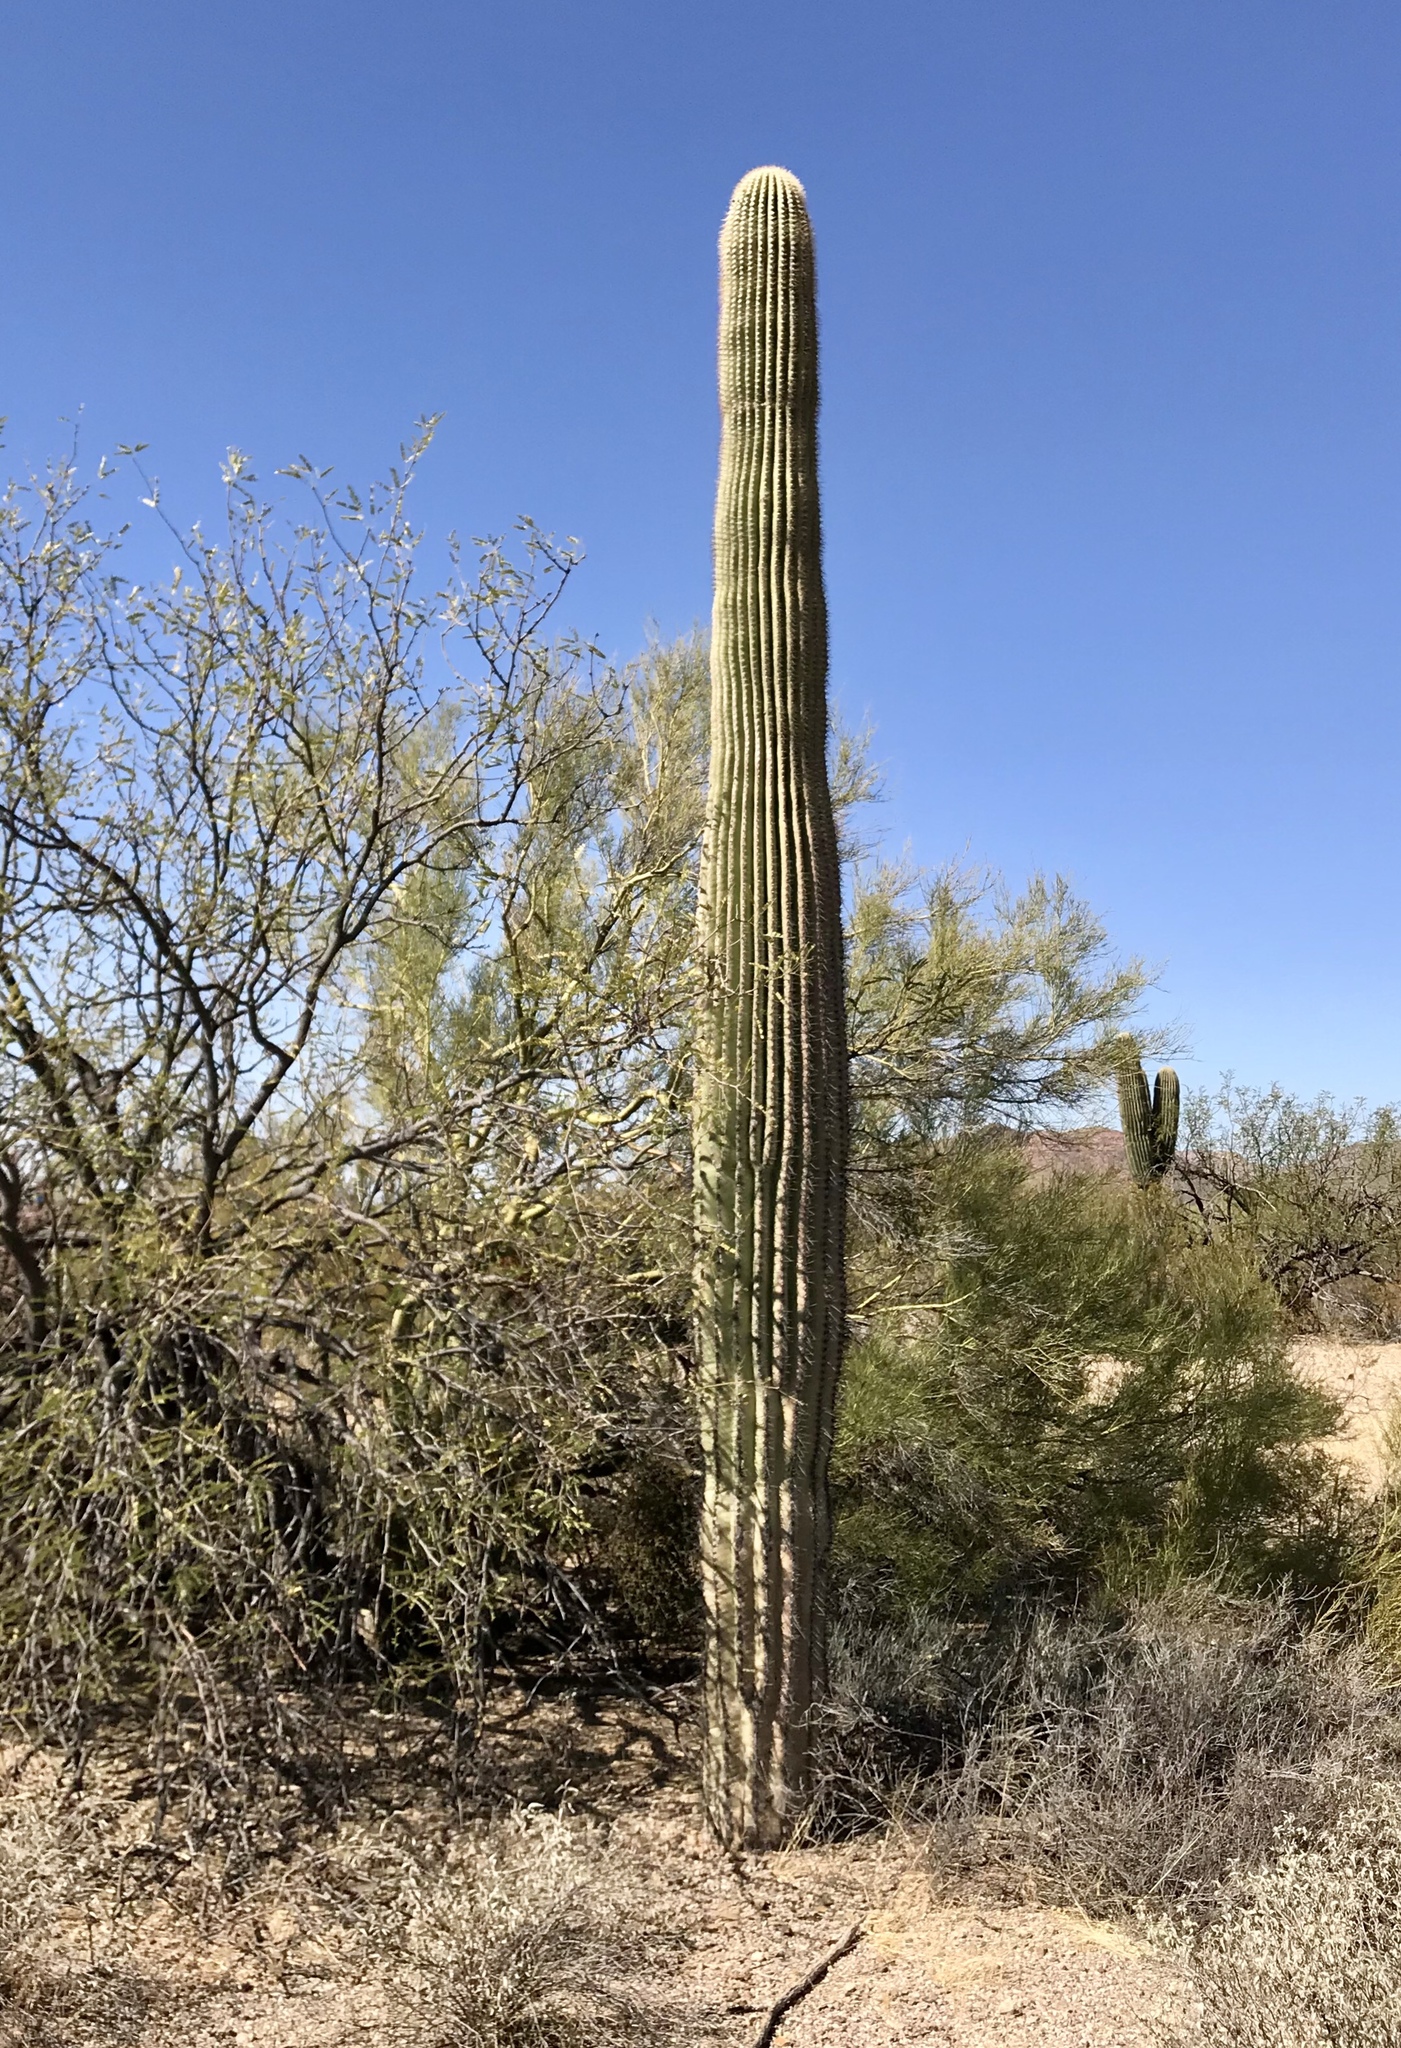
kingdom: Plantae
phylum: Tracheophyta
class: Magnoliopsida
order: Caryophyllales
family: Cactaceae
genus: Carnegiea
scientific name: Carnegiea gigantea
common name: Saguaro
